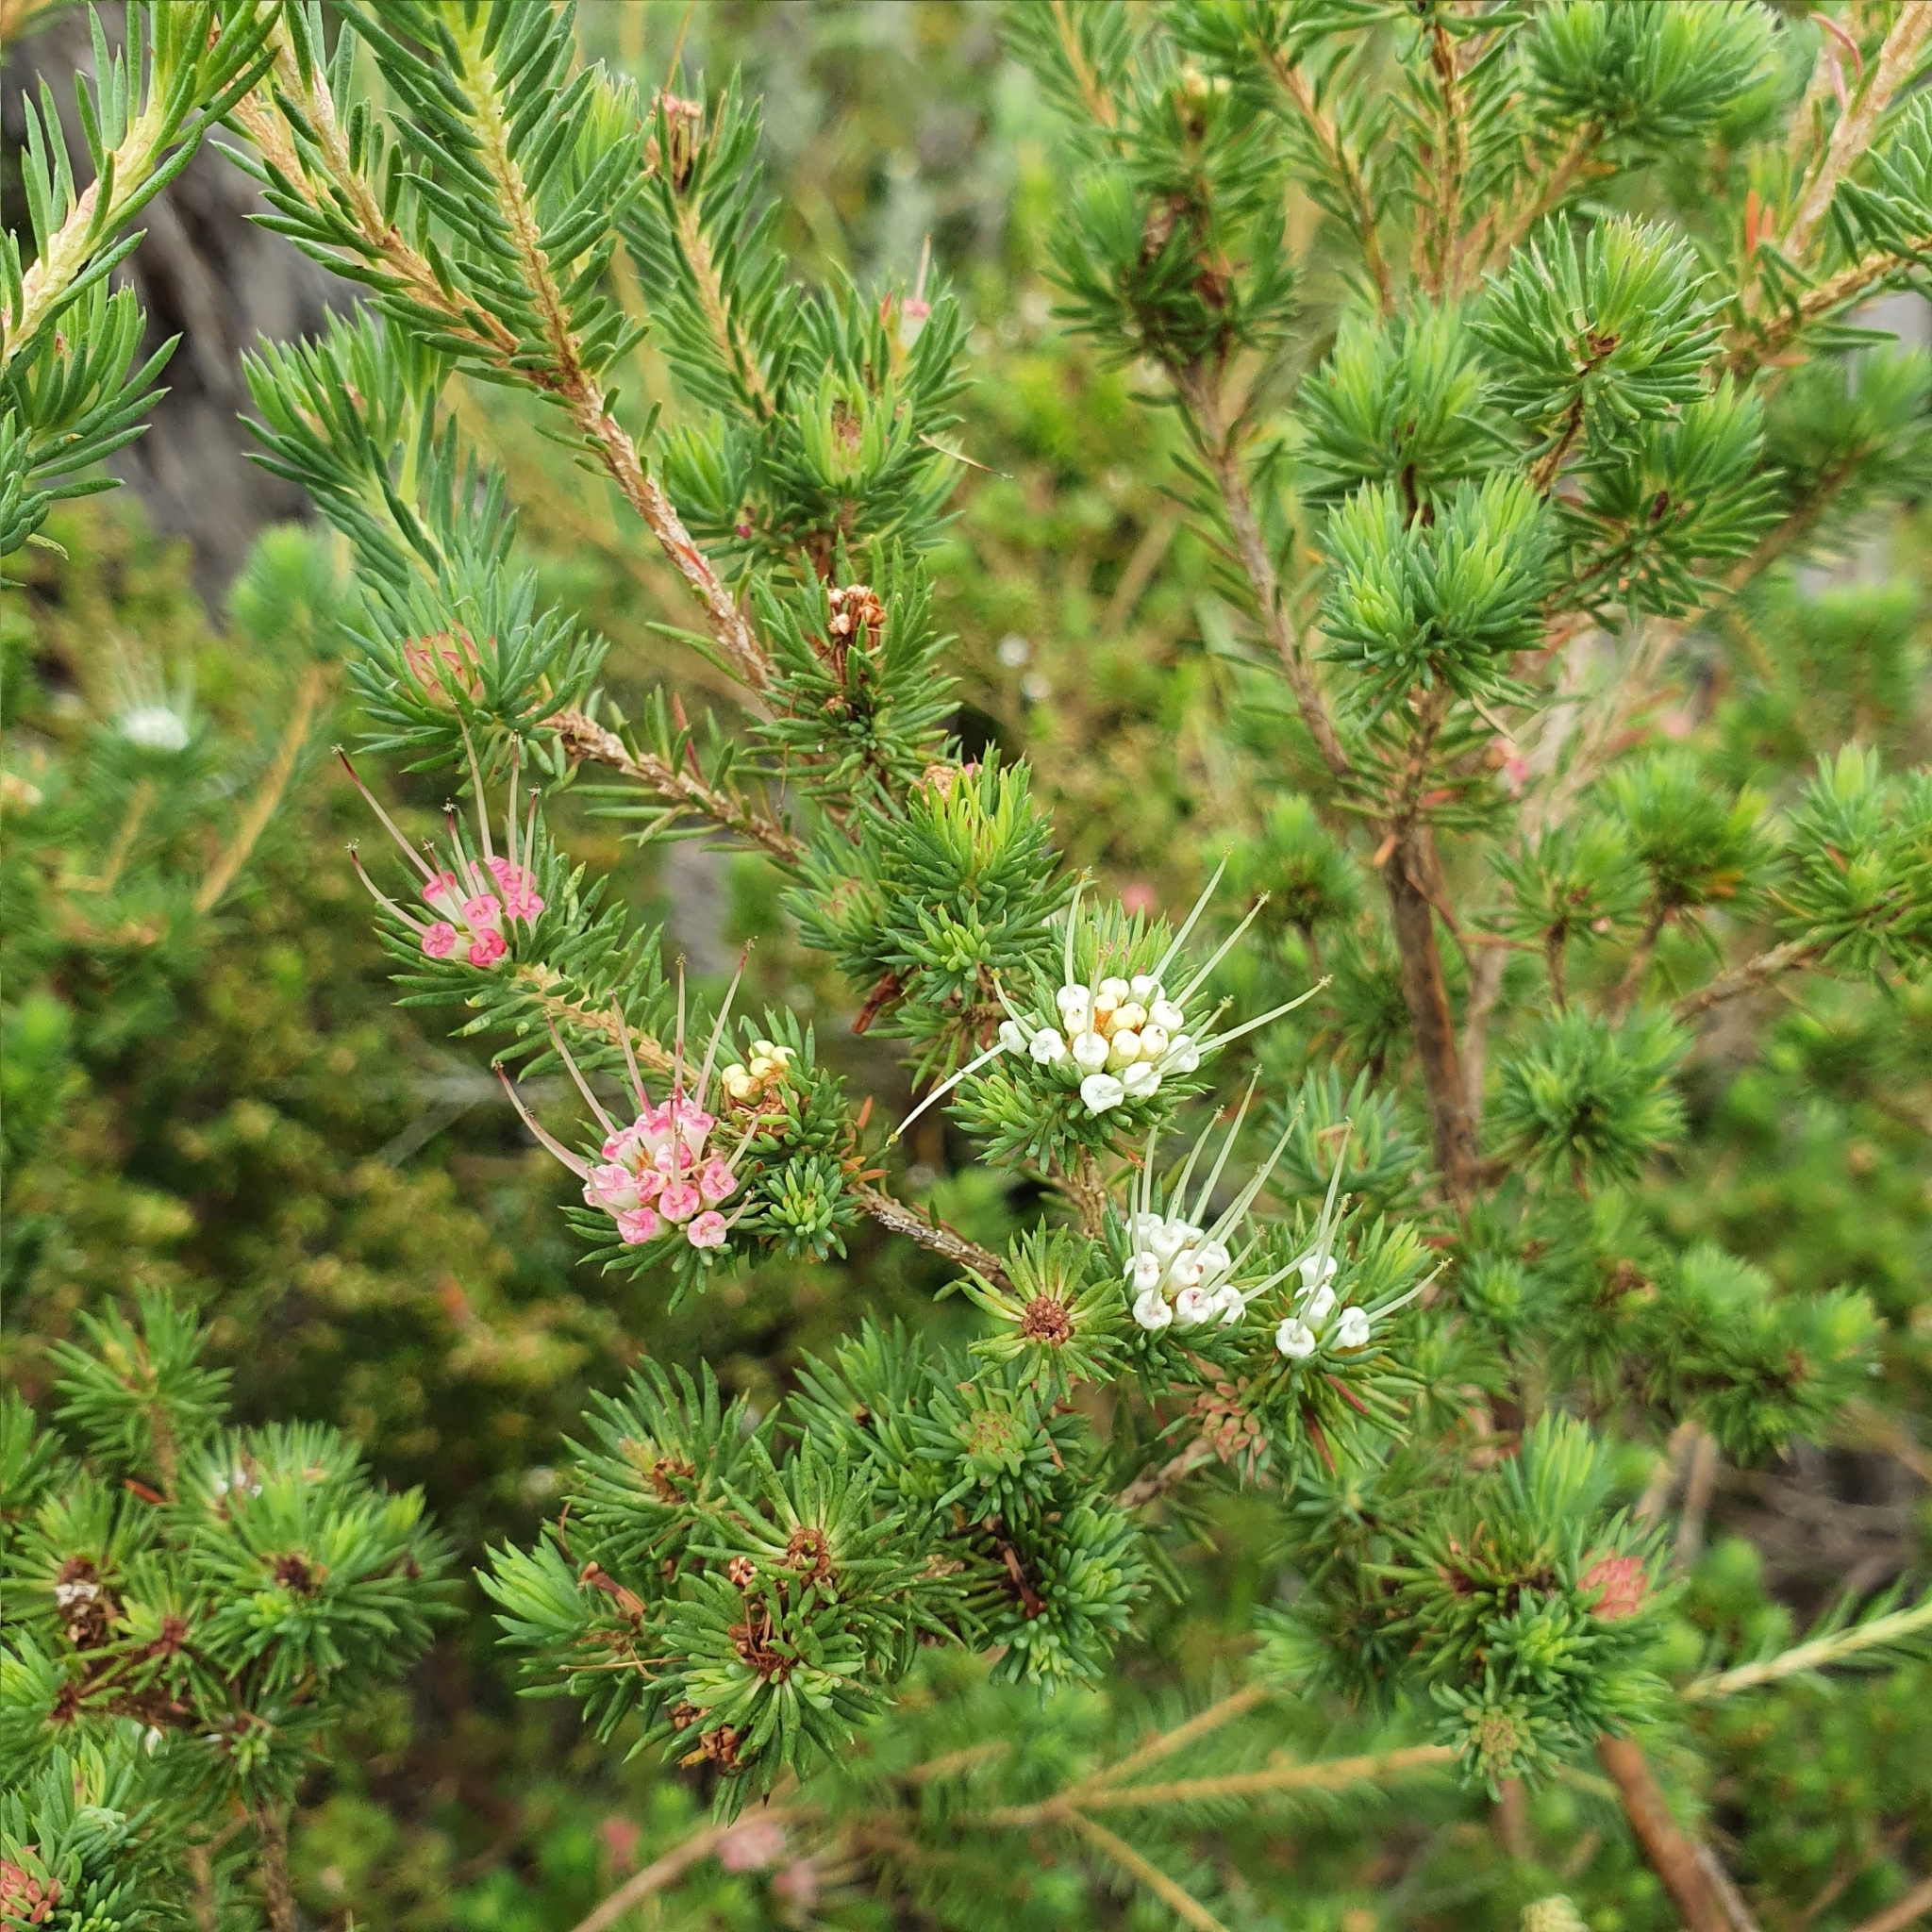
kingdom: Plantae
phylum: Tracheophyta
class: Magnoliopsida
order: Myrtales
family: Myrtaceae
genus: Darwinia
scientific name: Darwinia fascicularis
